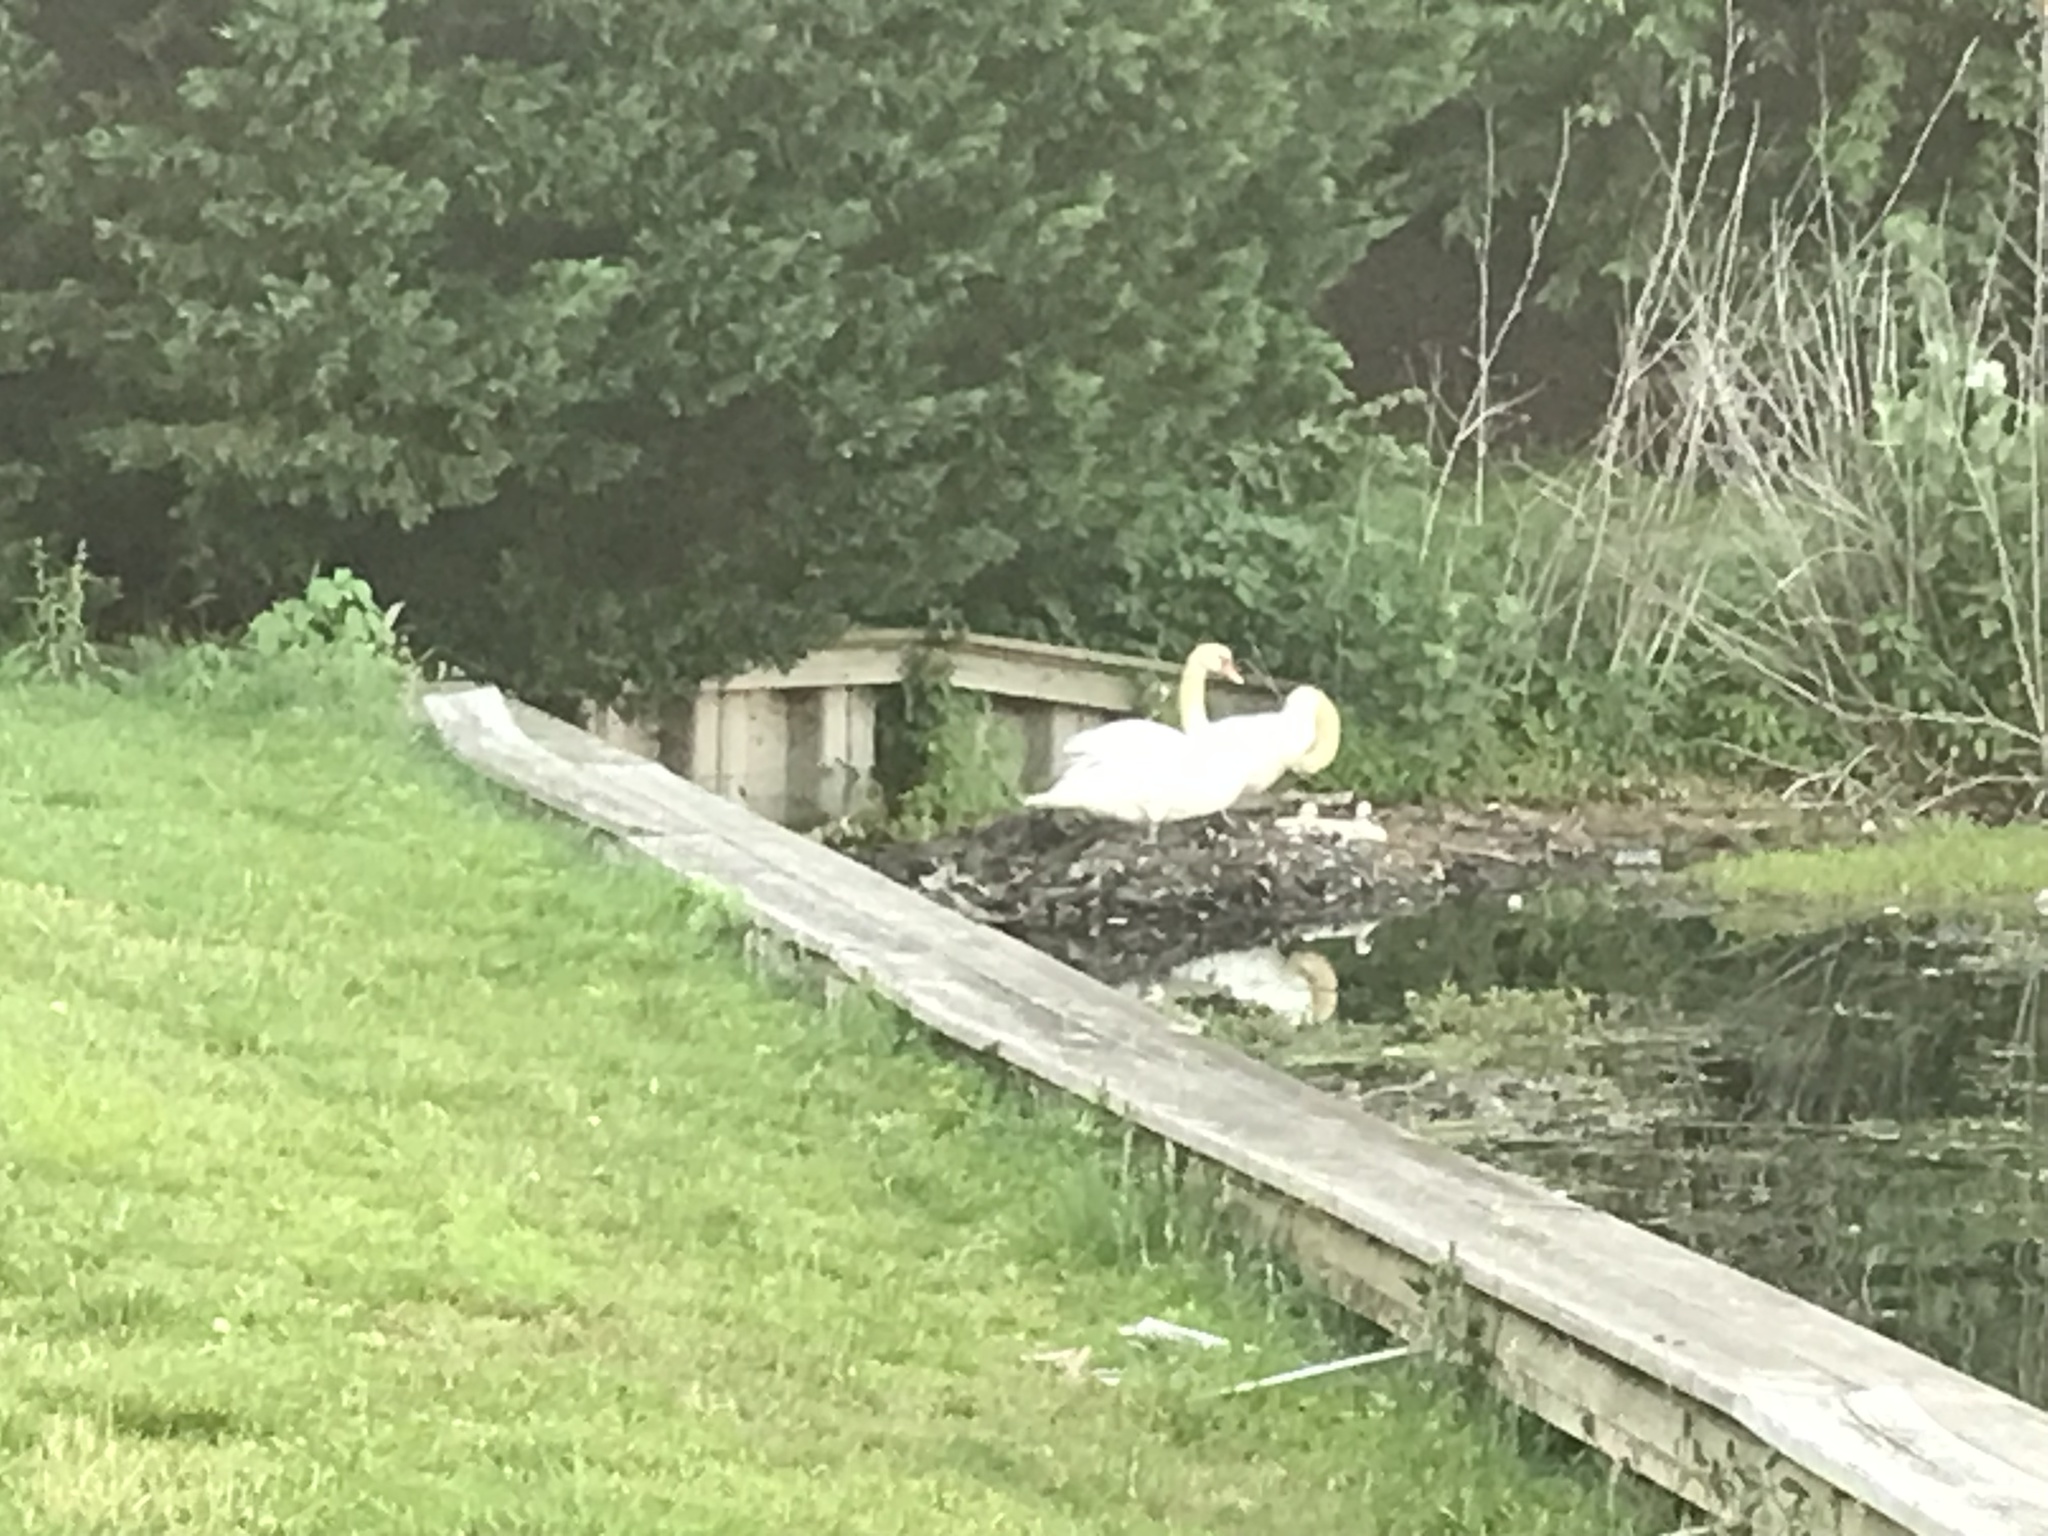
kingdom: Animalia
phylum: Chordata
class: Aves
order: Anseriformes
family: Anatidae
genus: Cygnus
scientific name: Cygnus olor
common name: Mute swan
